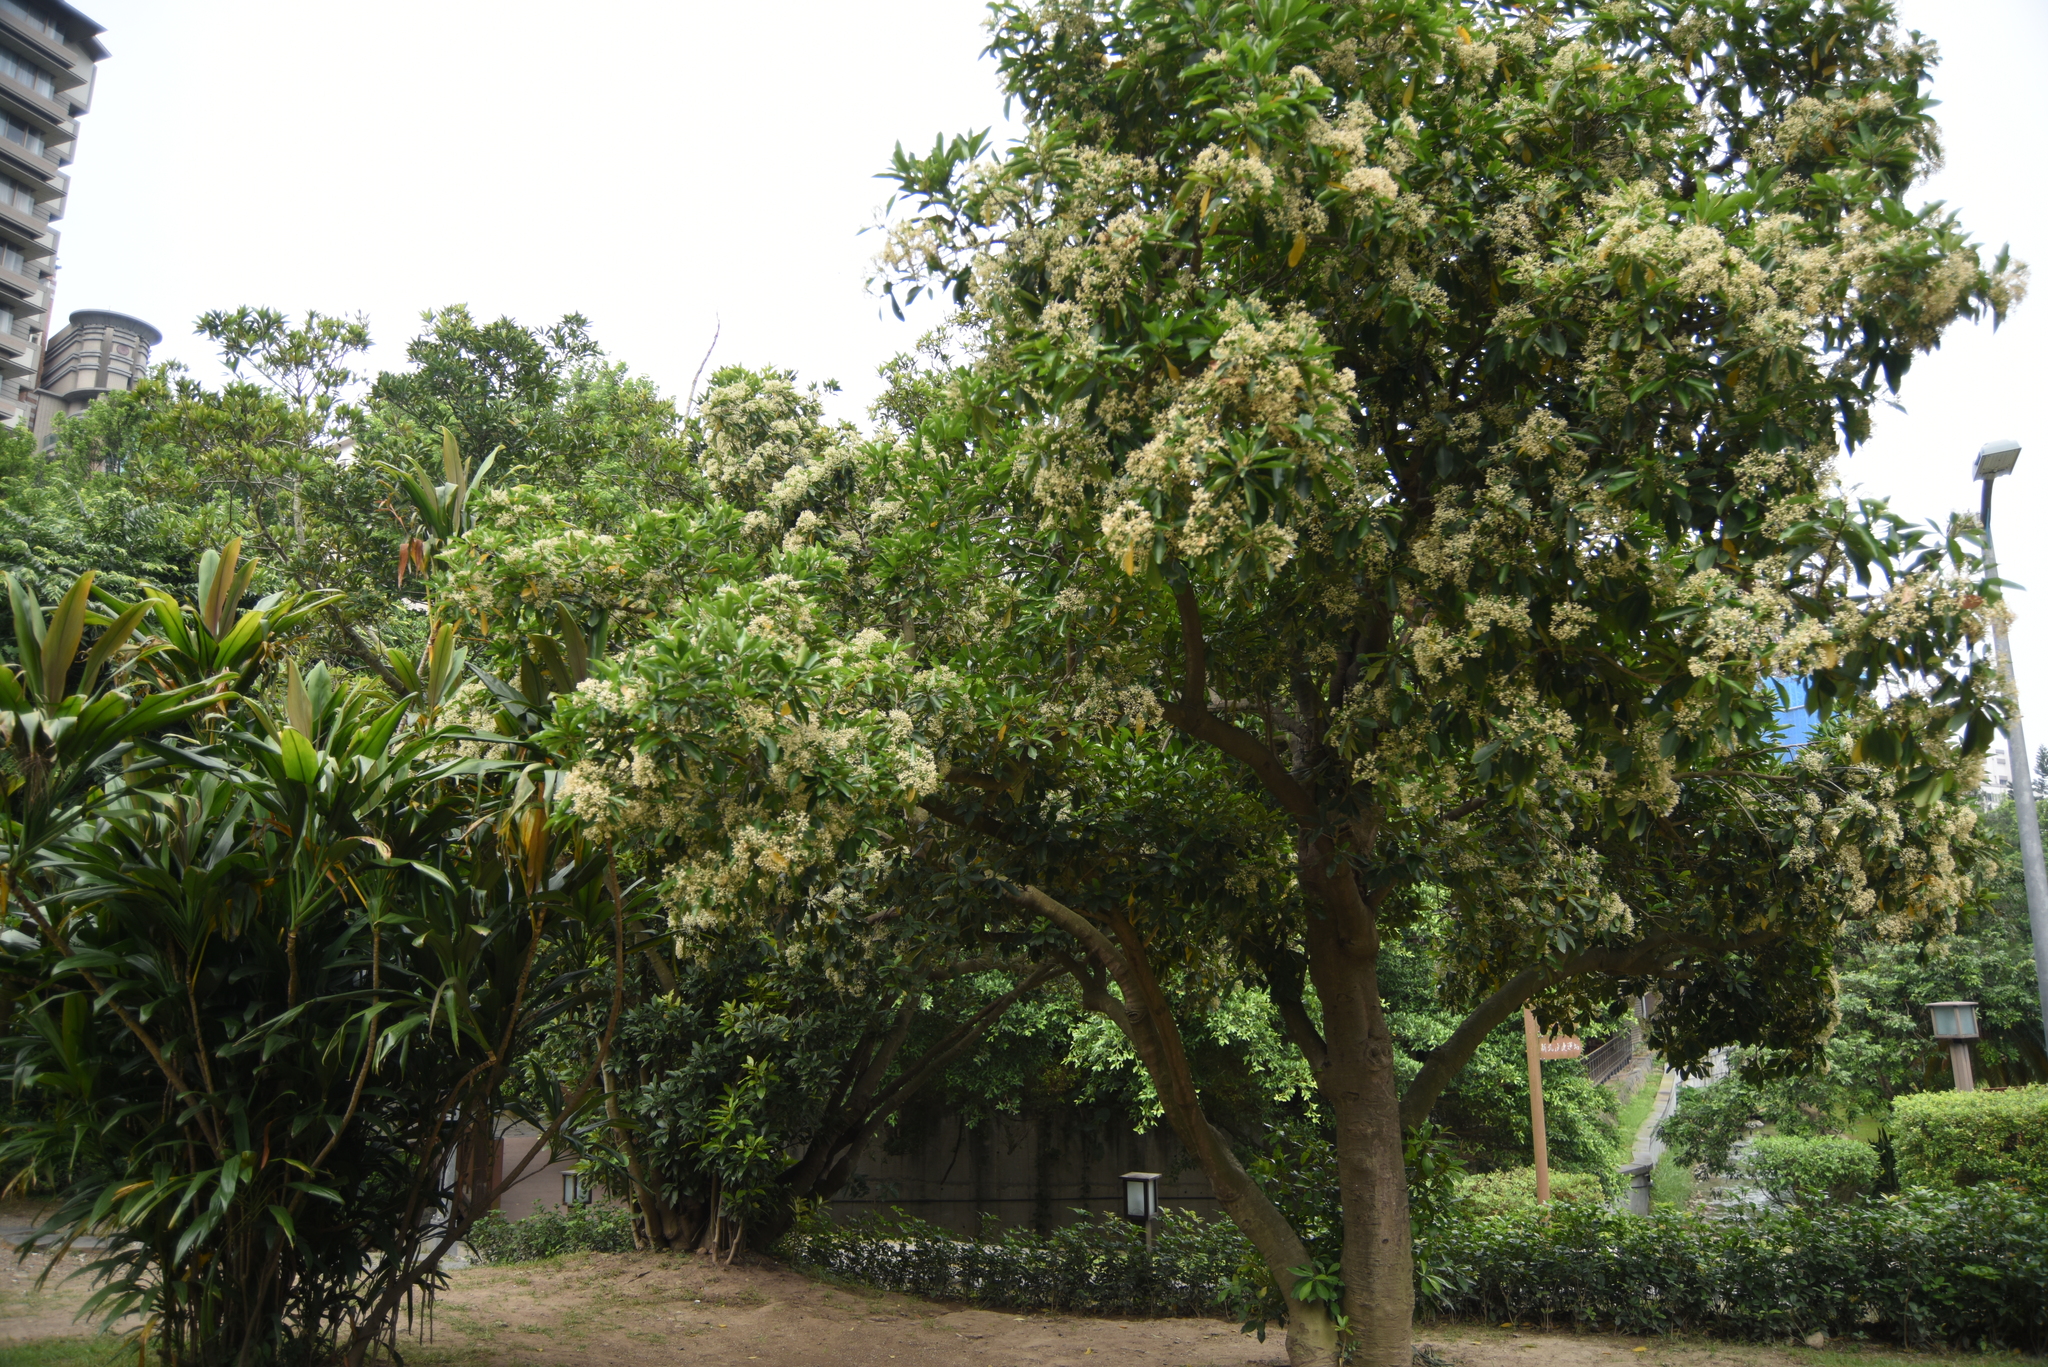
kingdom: Plantae
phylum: Tracheophyta
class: Magnoliopsida
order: Ericales
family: Primulaceae
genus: Ardisia
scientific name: Ardisia sieboldii
